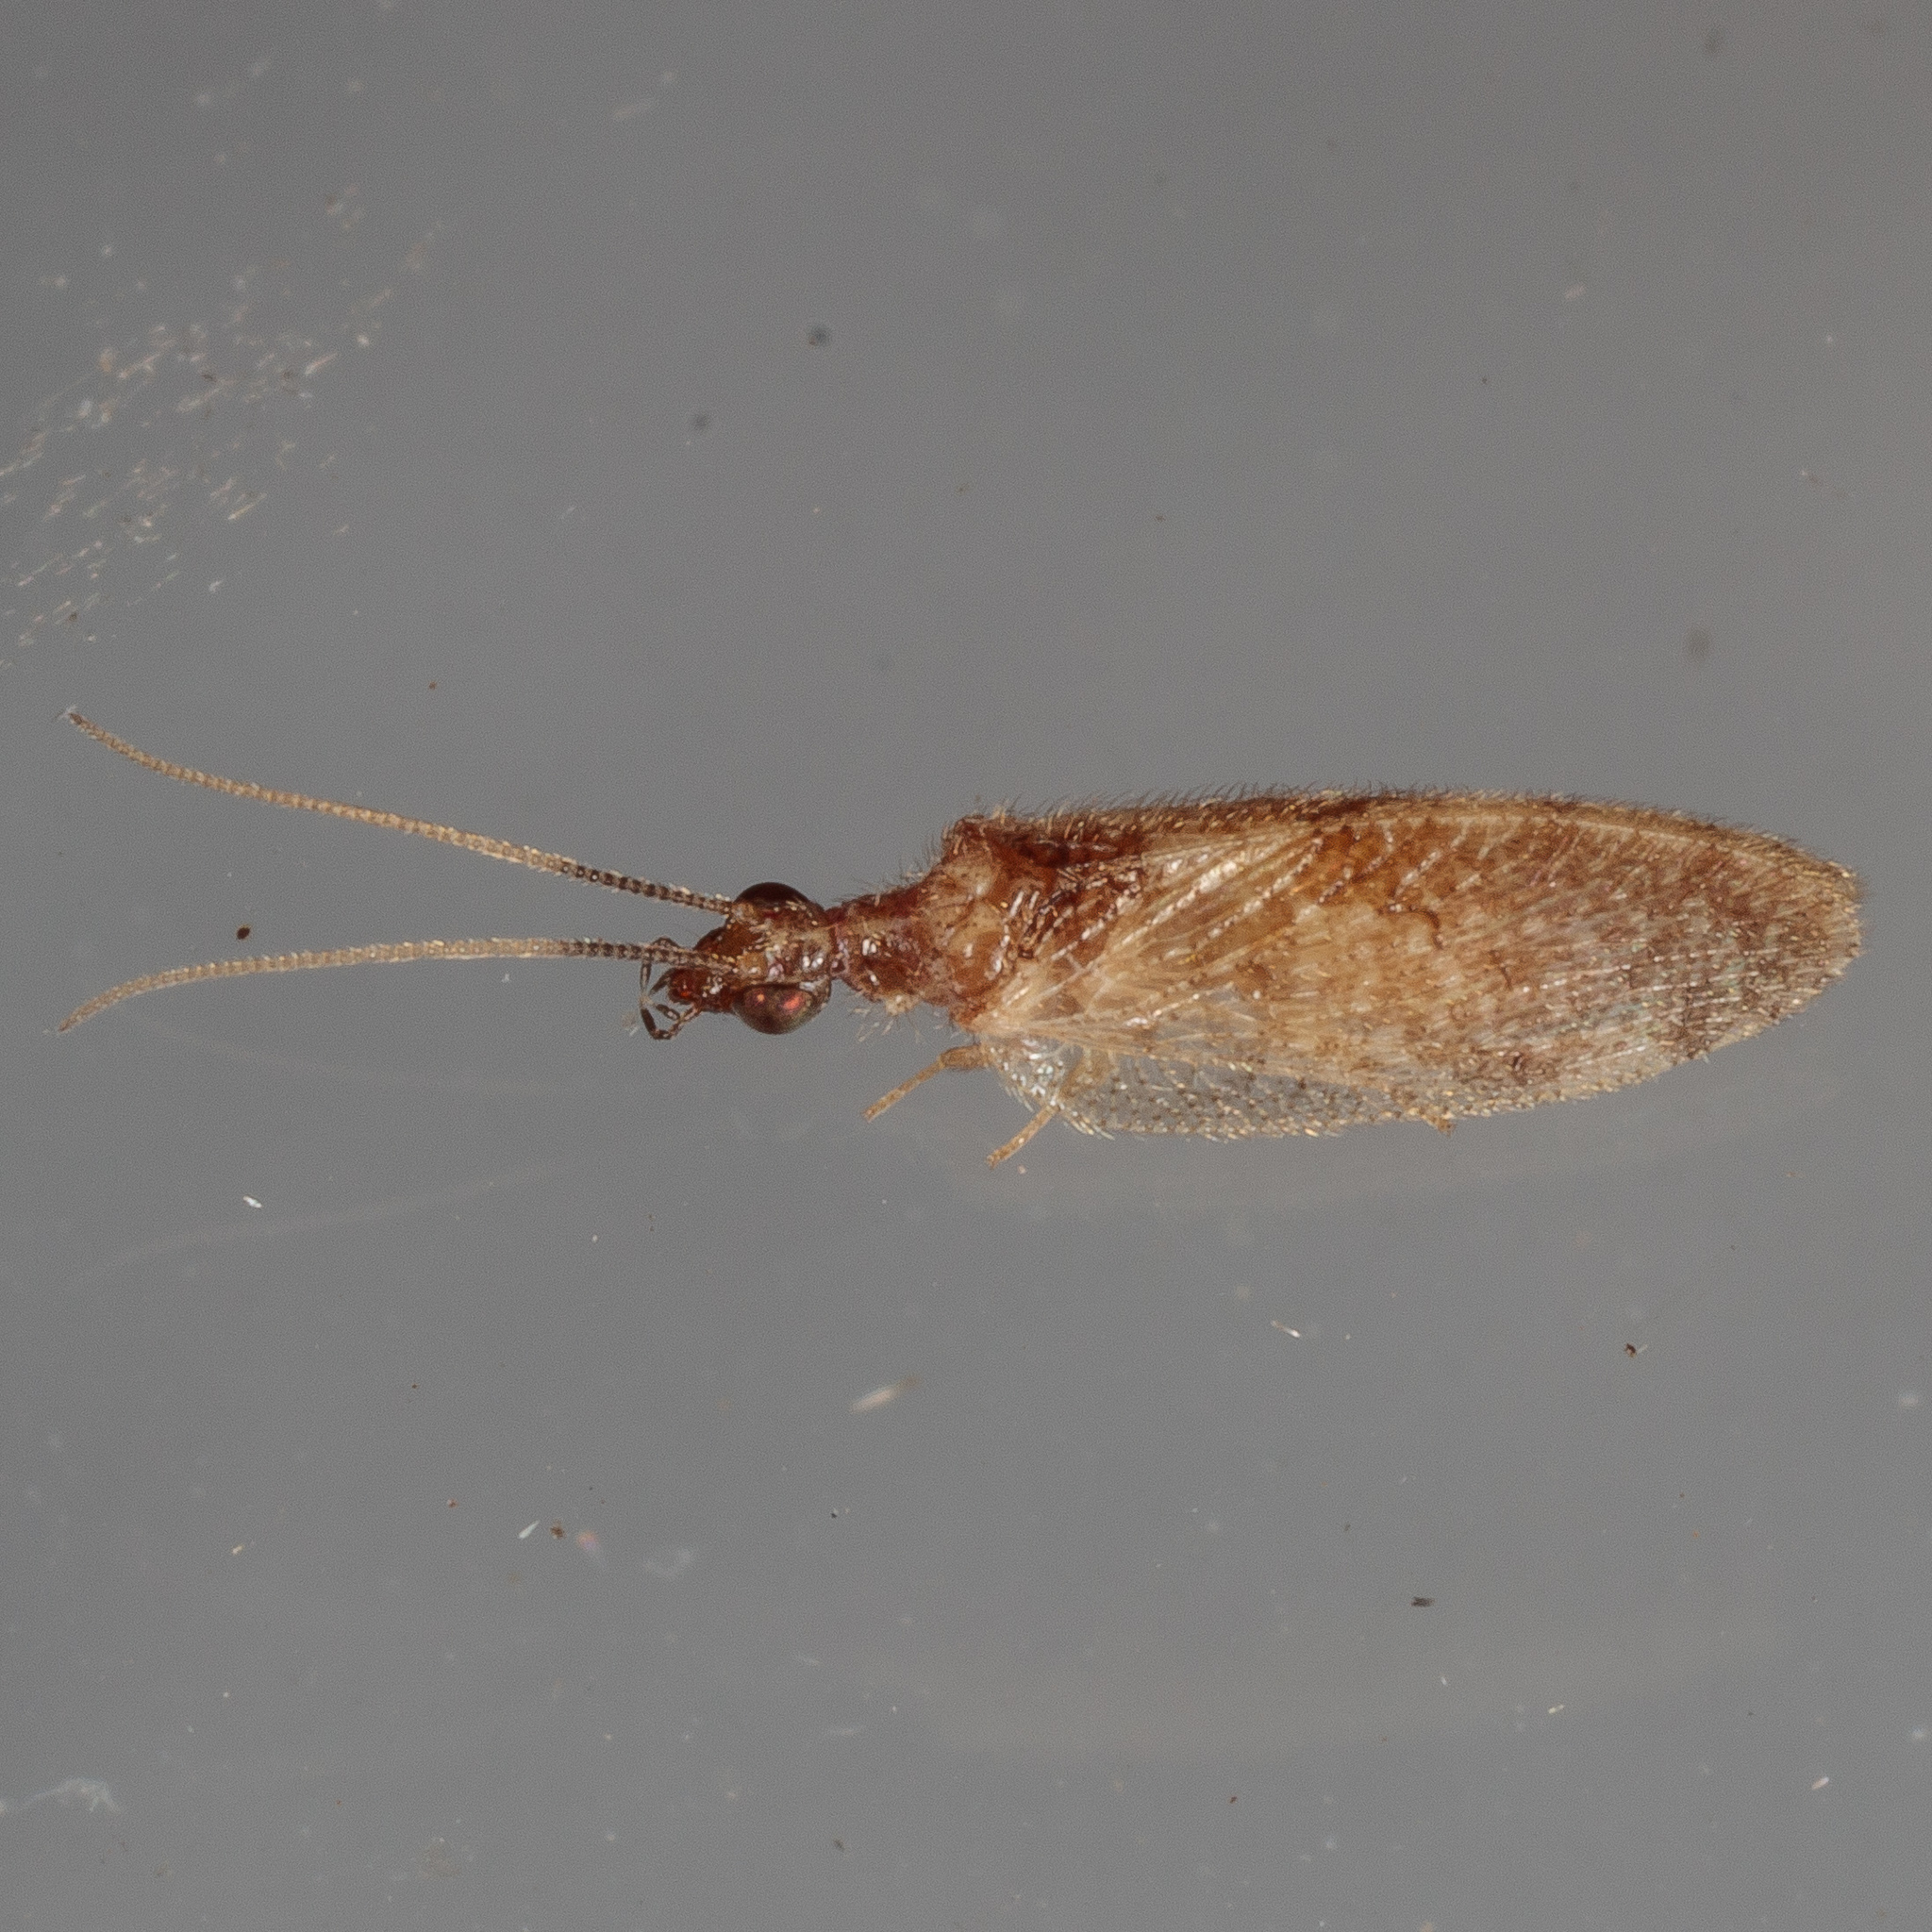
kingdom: Animalia
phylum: Arthropoda
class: Insecta
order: Neuroptera
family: Hemerobiidae
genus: Sympherobius
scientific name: Sympherobius barberi
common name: Brown lacewing
